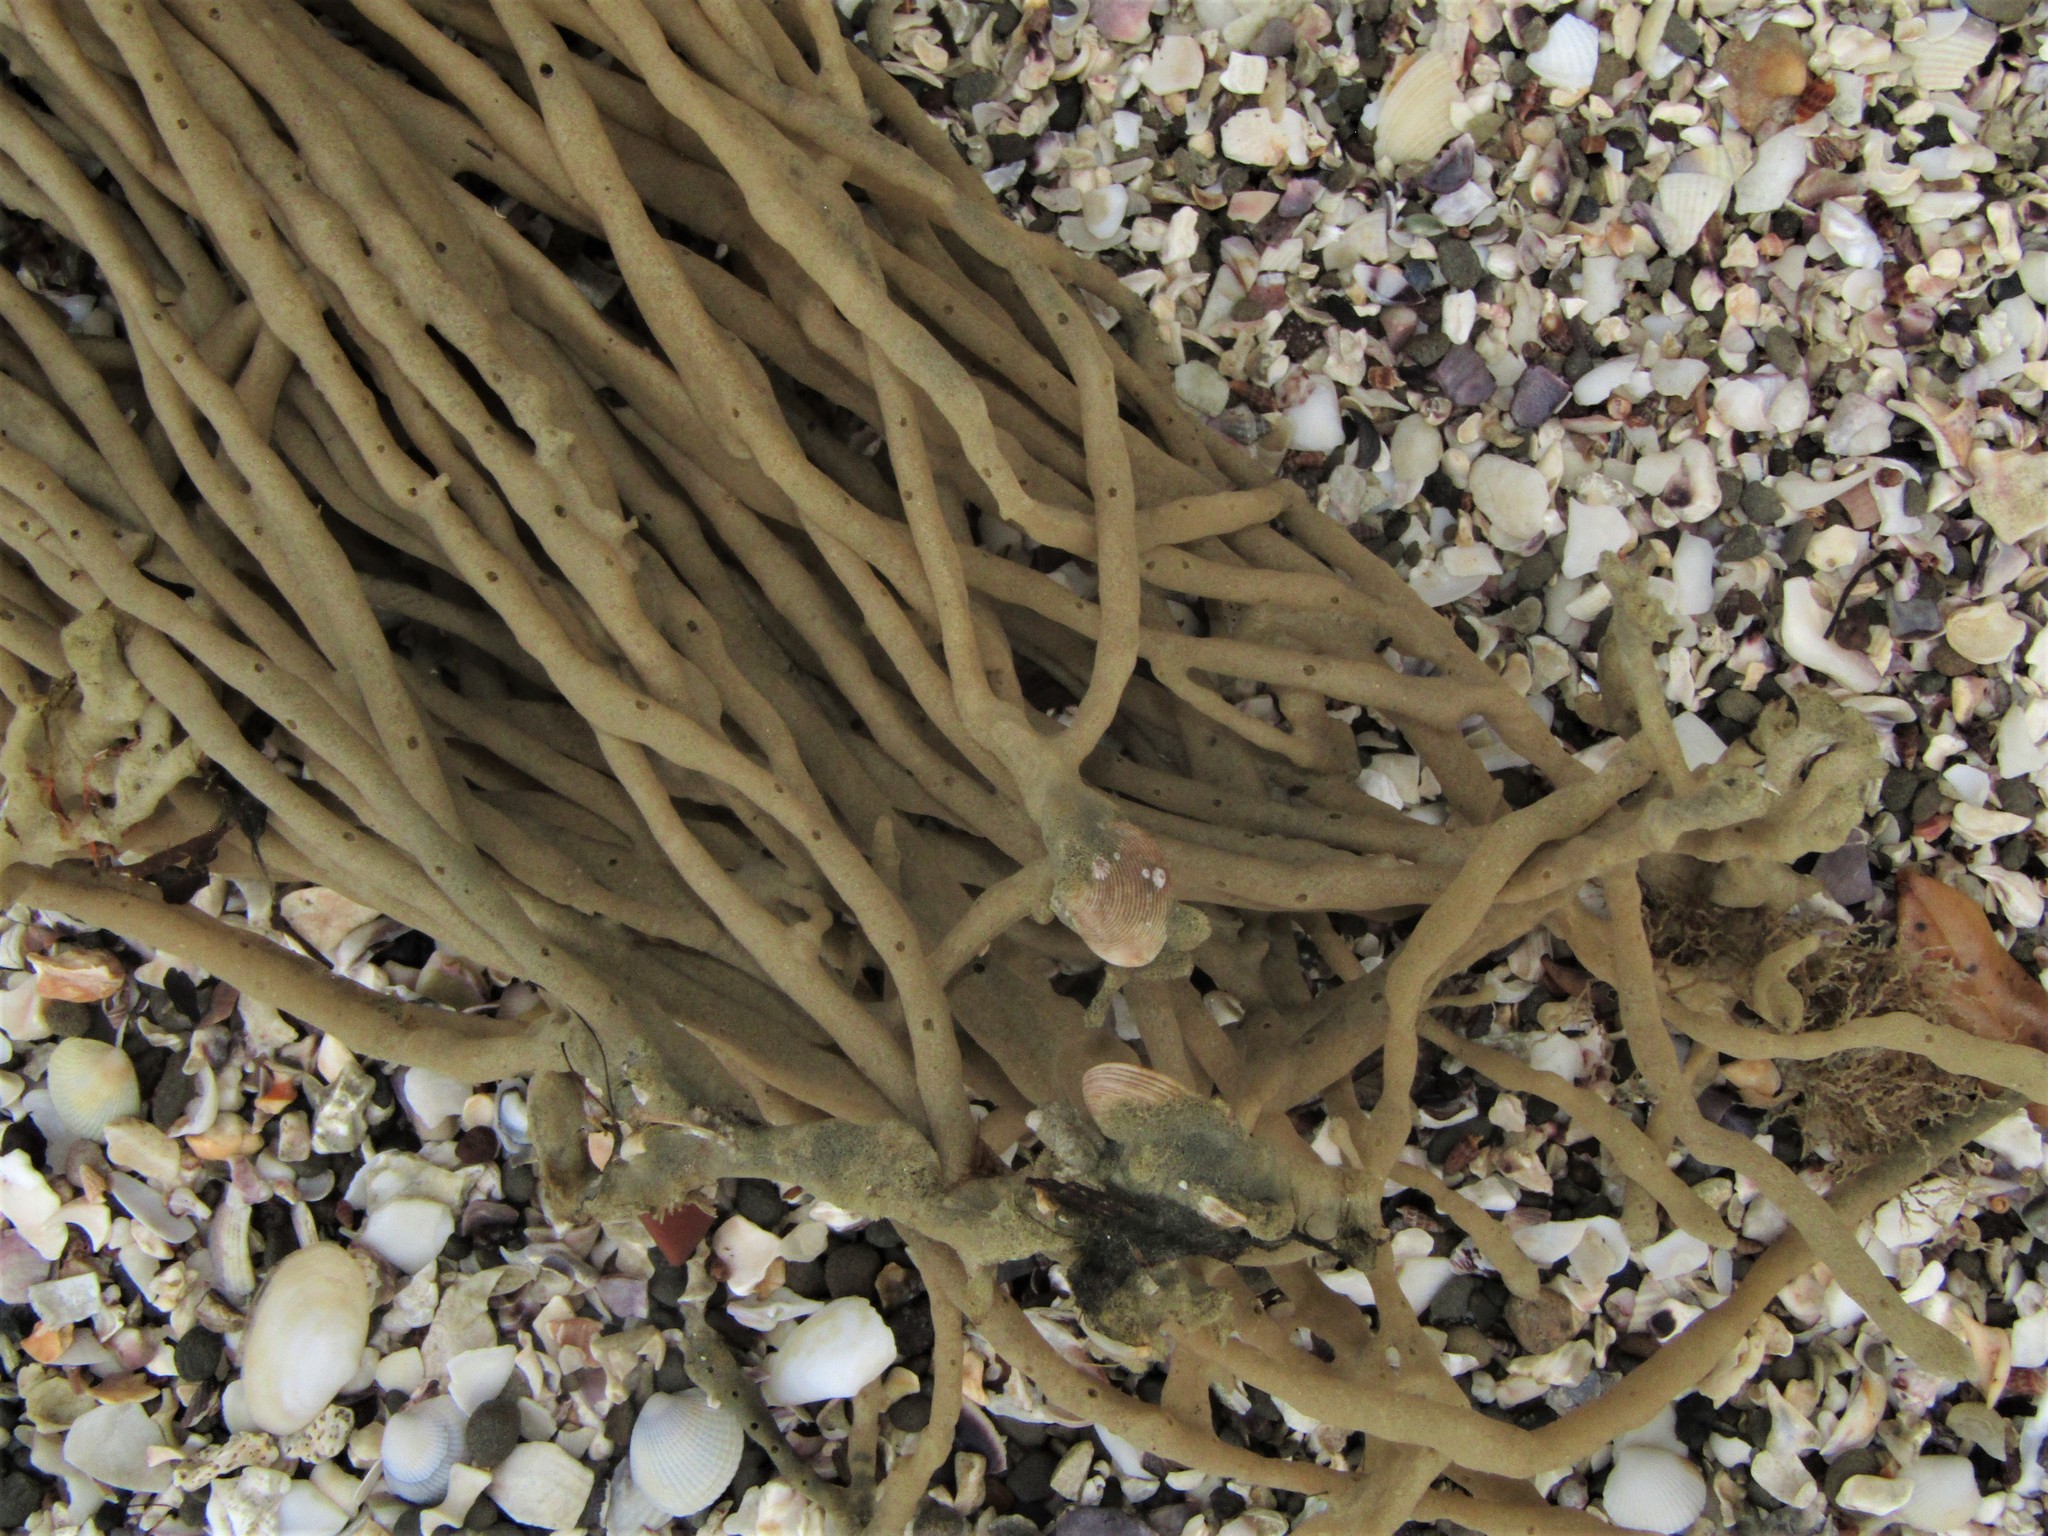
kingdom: Animalia
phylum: Porifera
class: Demospongiae
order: Haplosclerida
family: Callyspongiidae
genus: Callyspongia
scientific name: Callyspongia nuda
